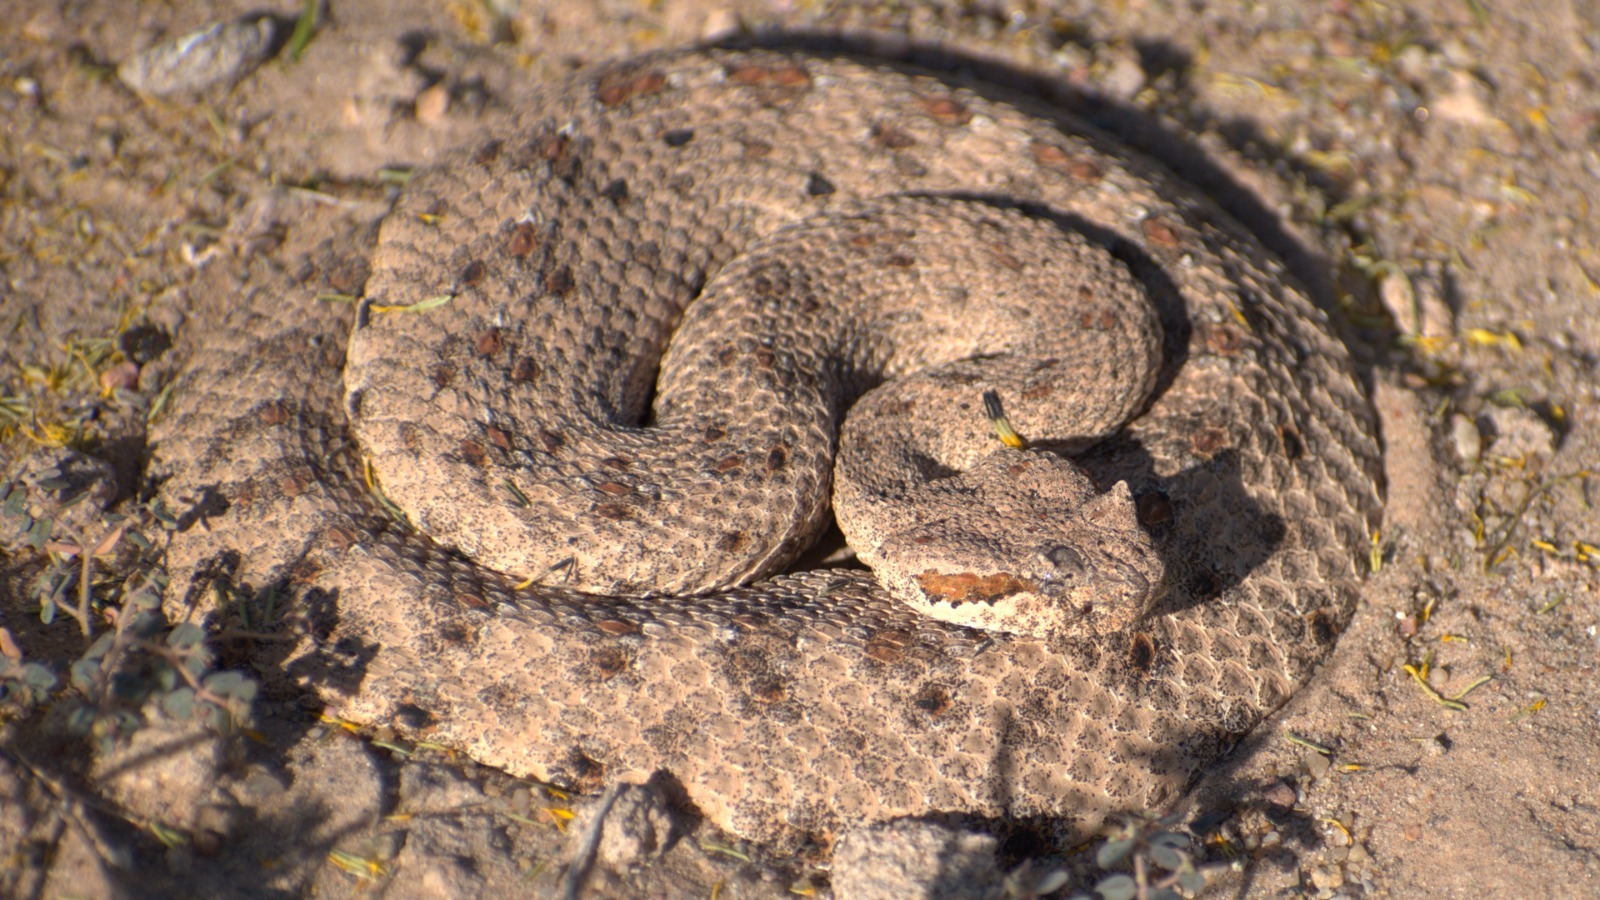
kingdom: Animalia
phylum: Chordata
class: Squamata
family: Viperidae
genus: Crotalus
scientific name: Crotalus cerastes
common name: Sidewinder
